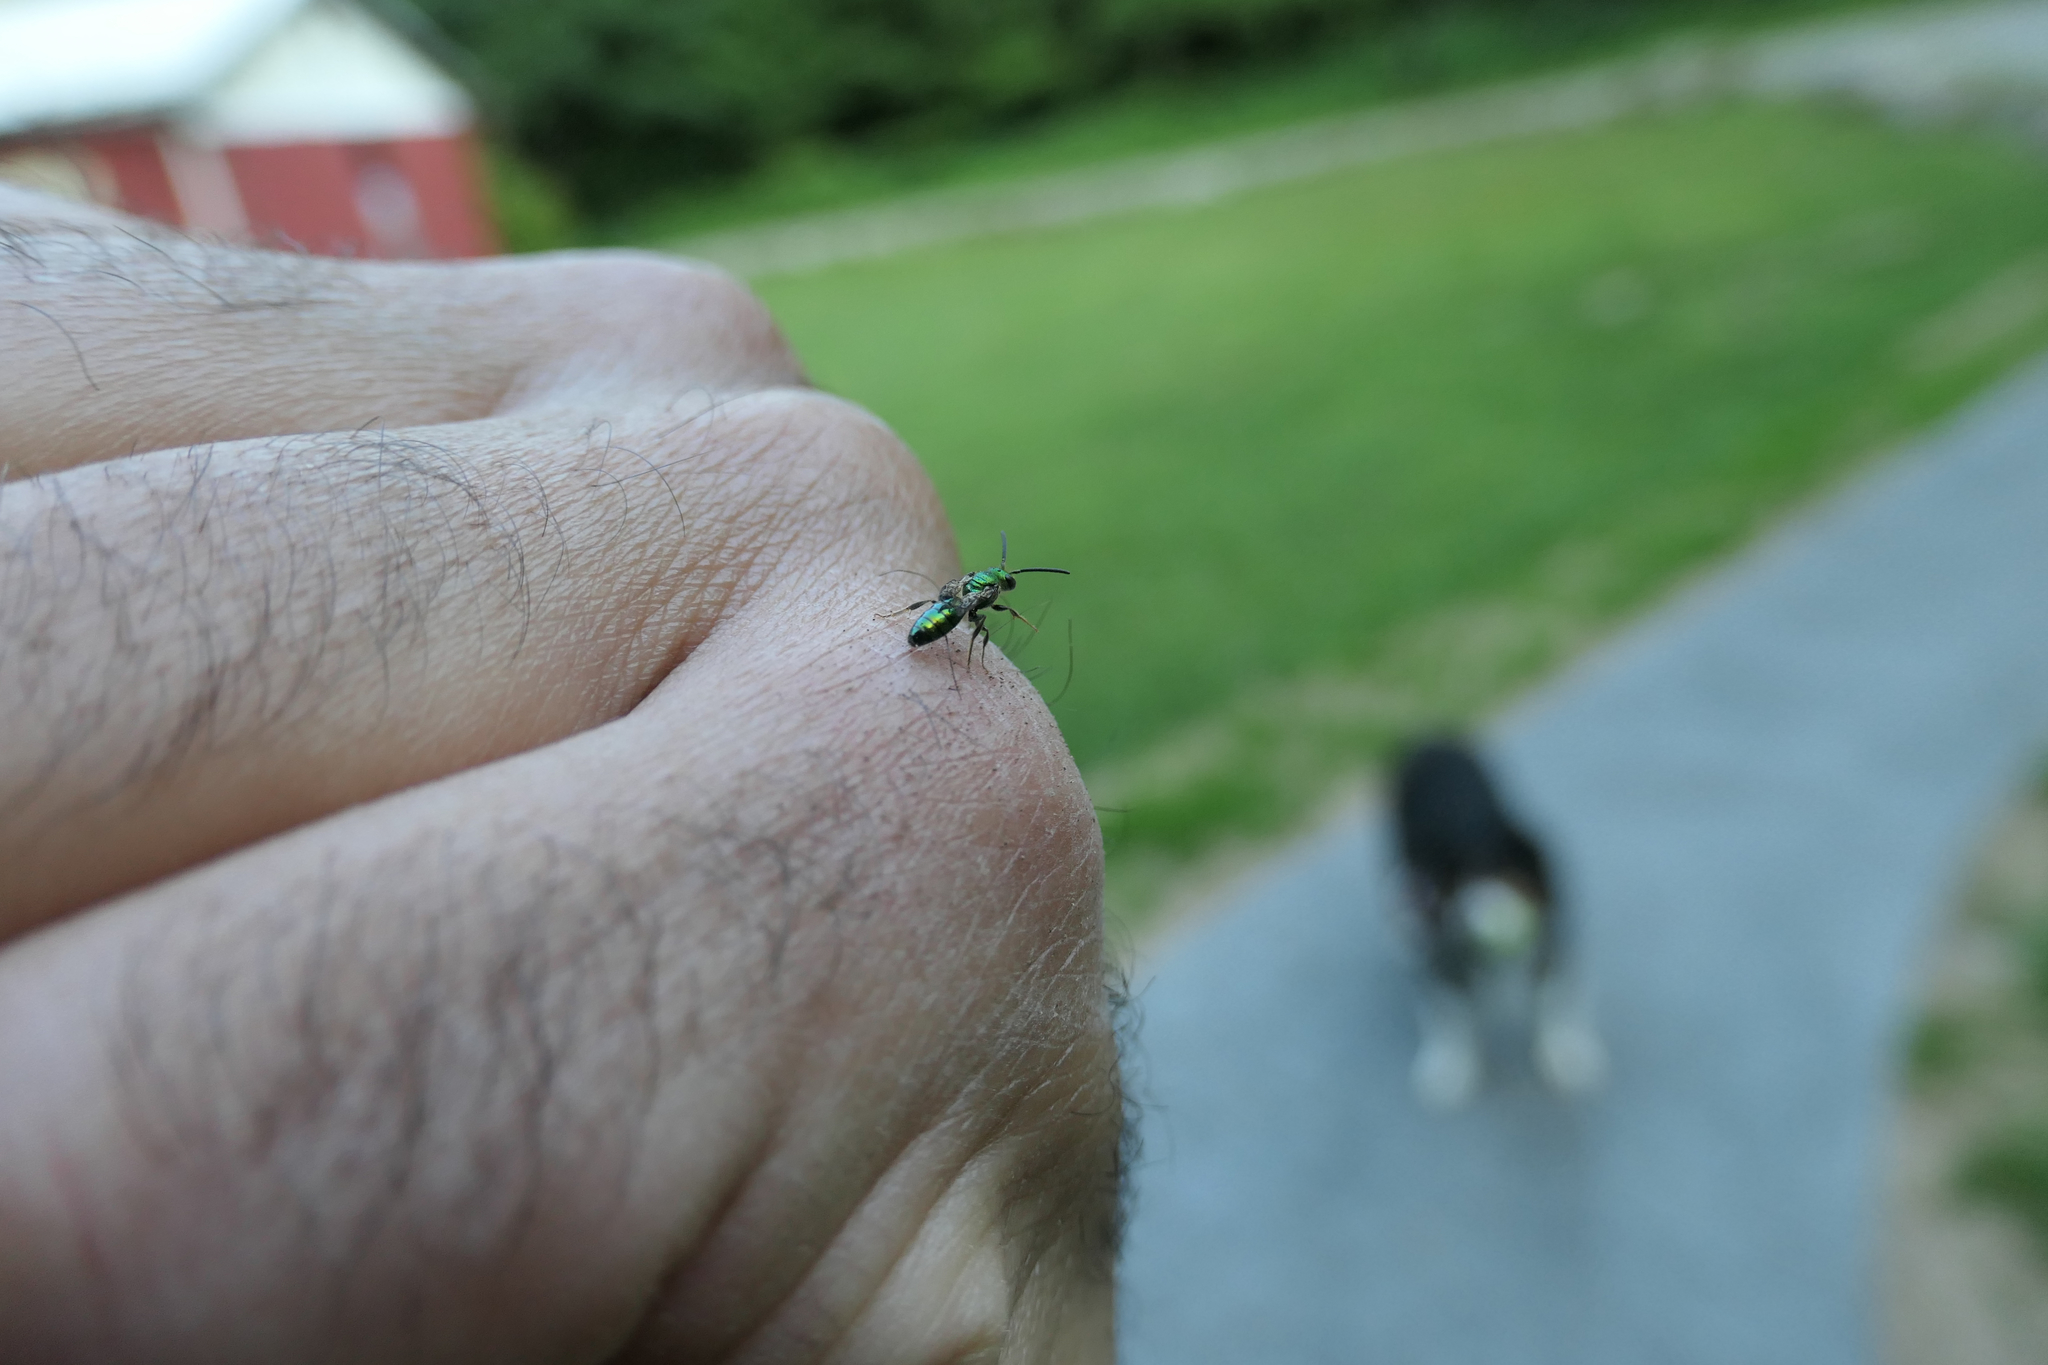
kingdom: Animalia
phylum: Arthropoda
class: Insecta
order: Hymenoptera
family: Halictidae
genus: Augochlora
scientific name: Augochlora pura
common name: Pure green sweat bee
